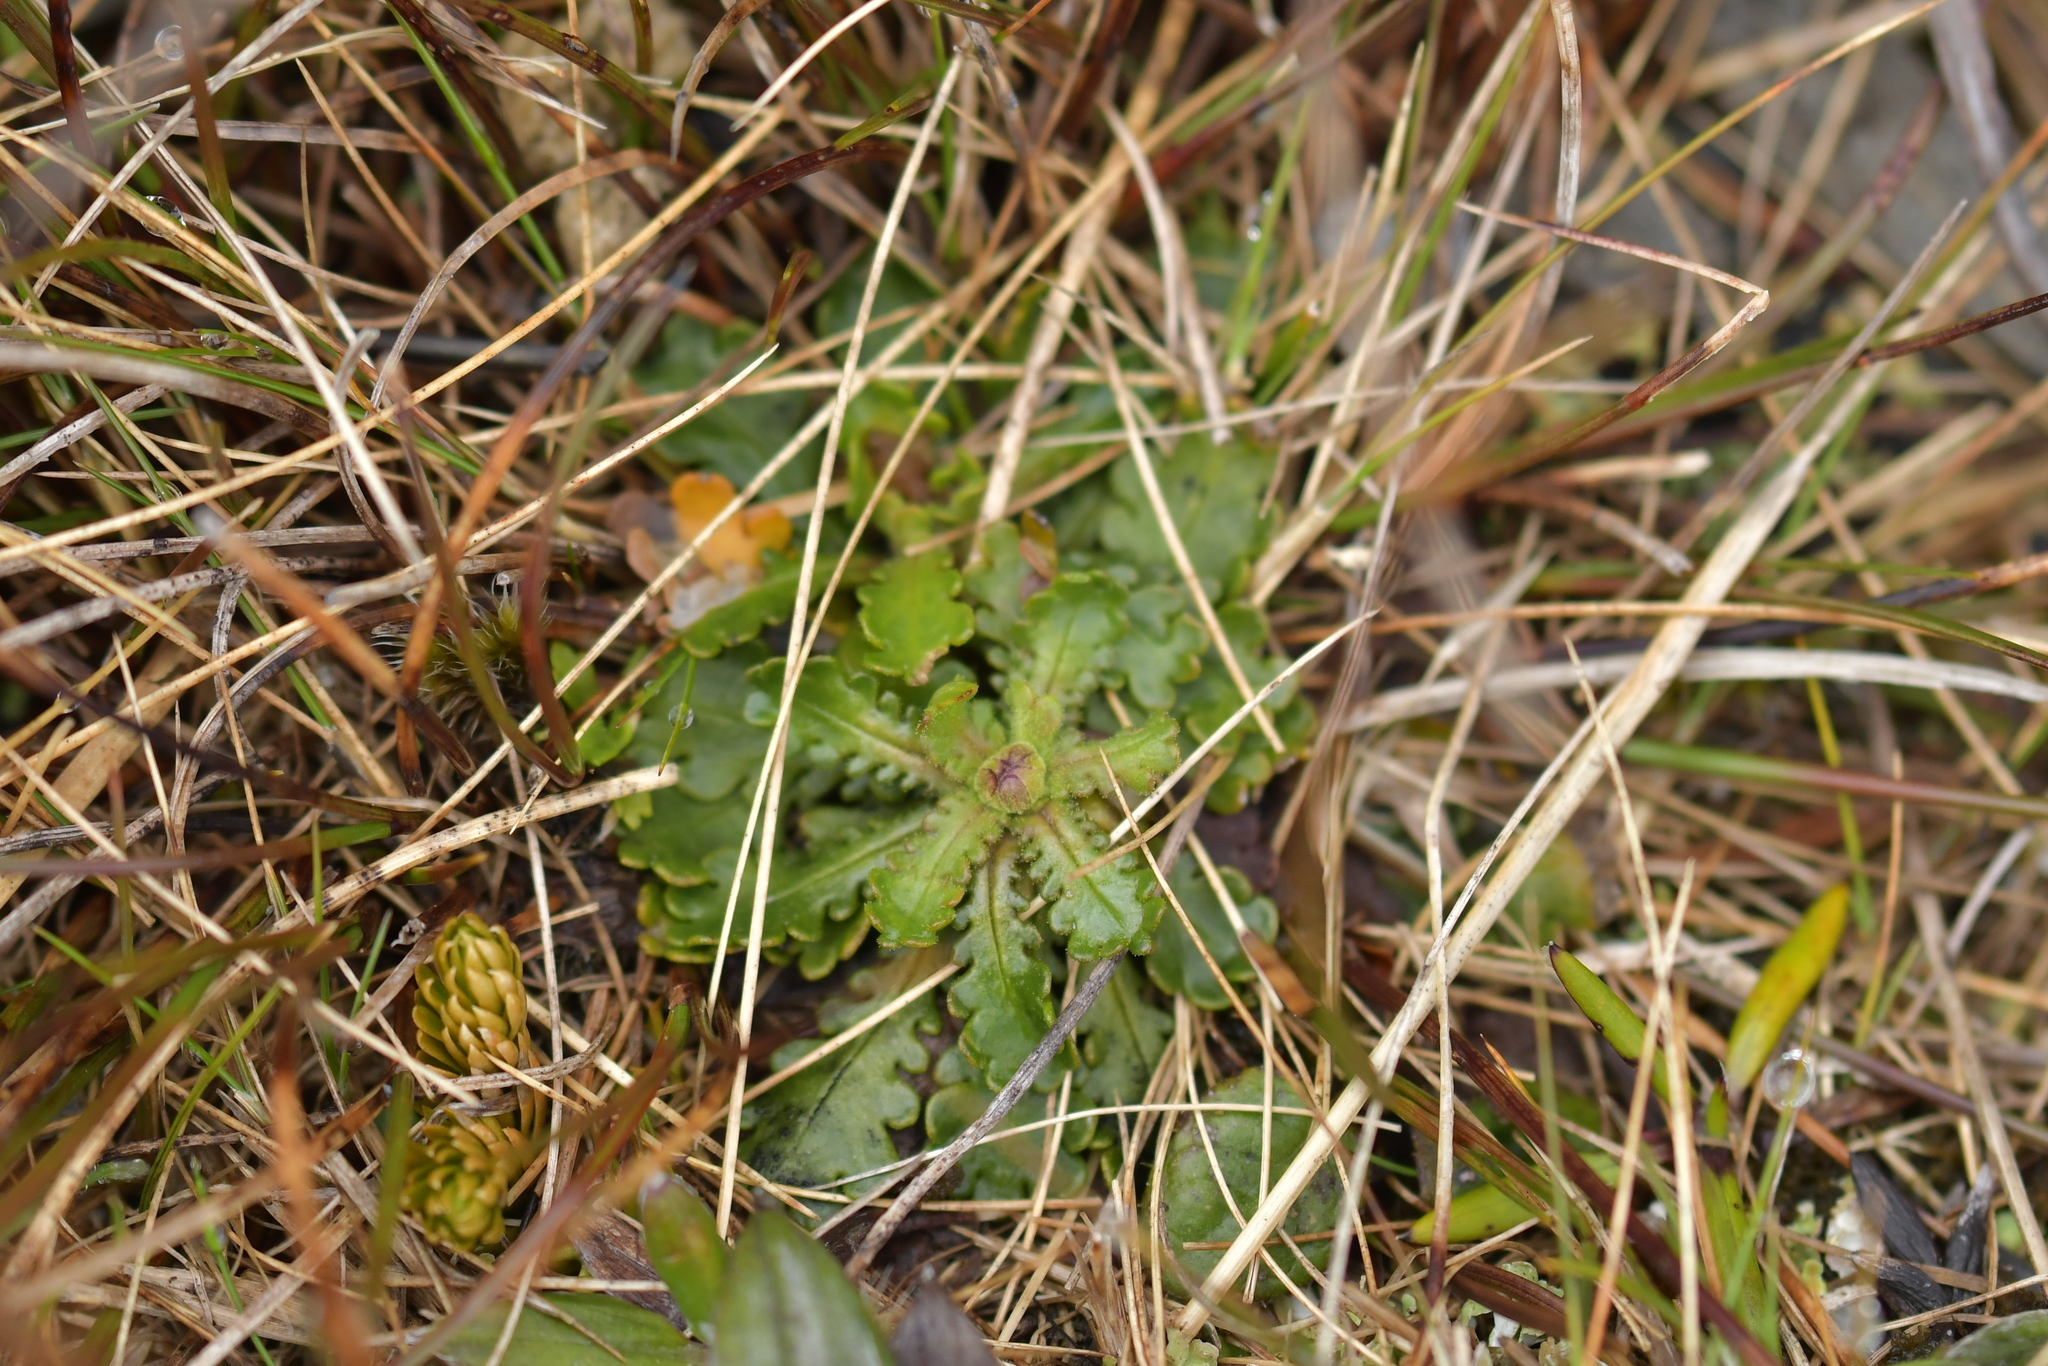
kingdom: Plantae
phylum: Tracheophyta
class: Magnoliopsida
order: Asterales
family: Asteraceae
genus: Brachyscome
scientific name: Brachyscome sinclairii
